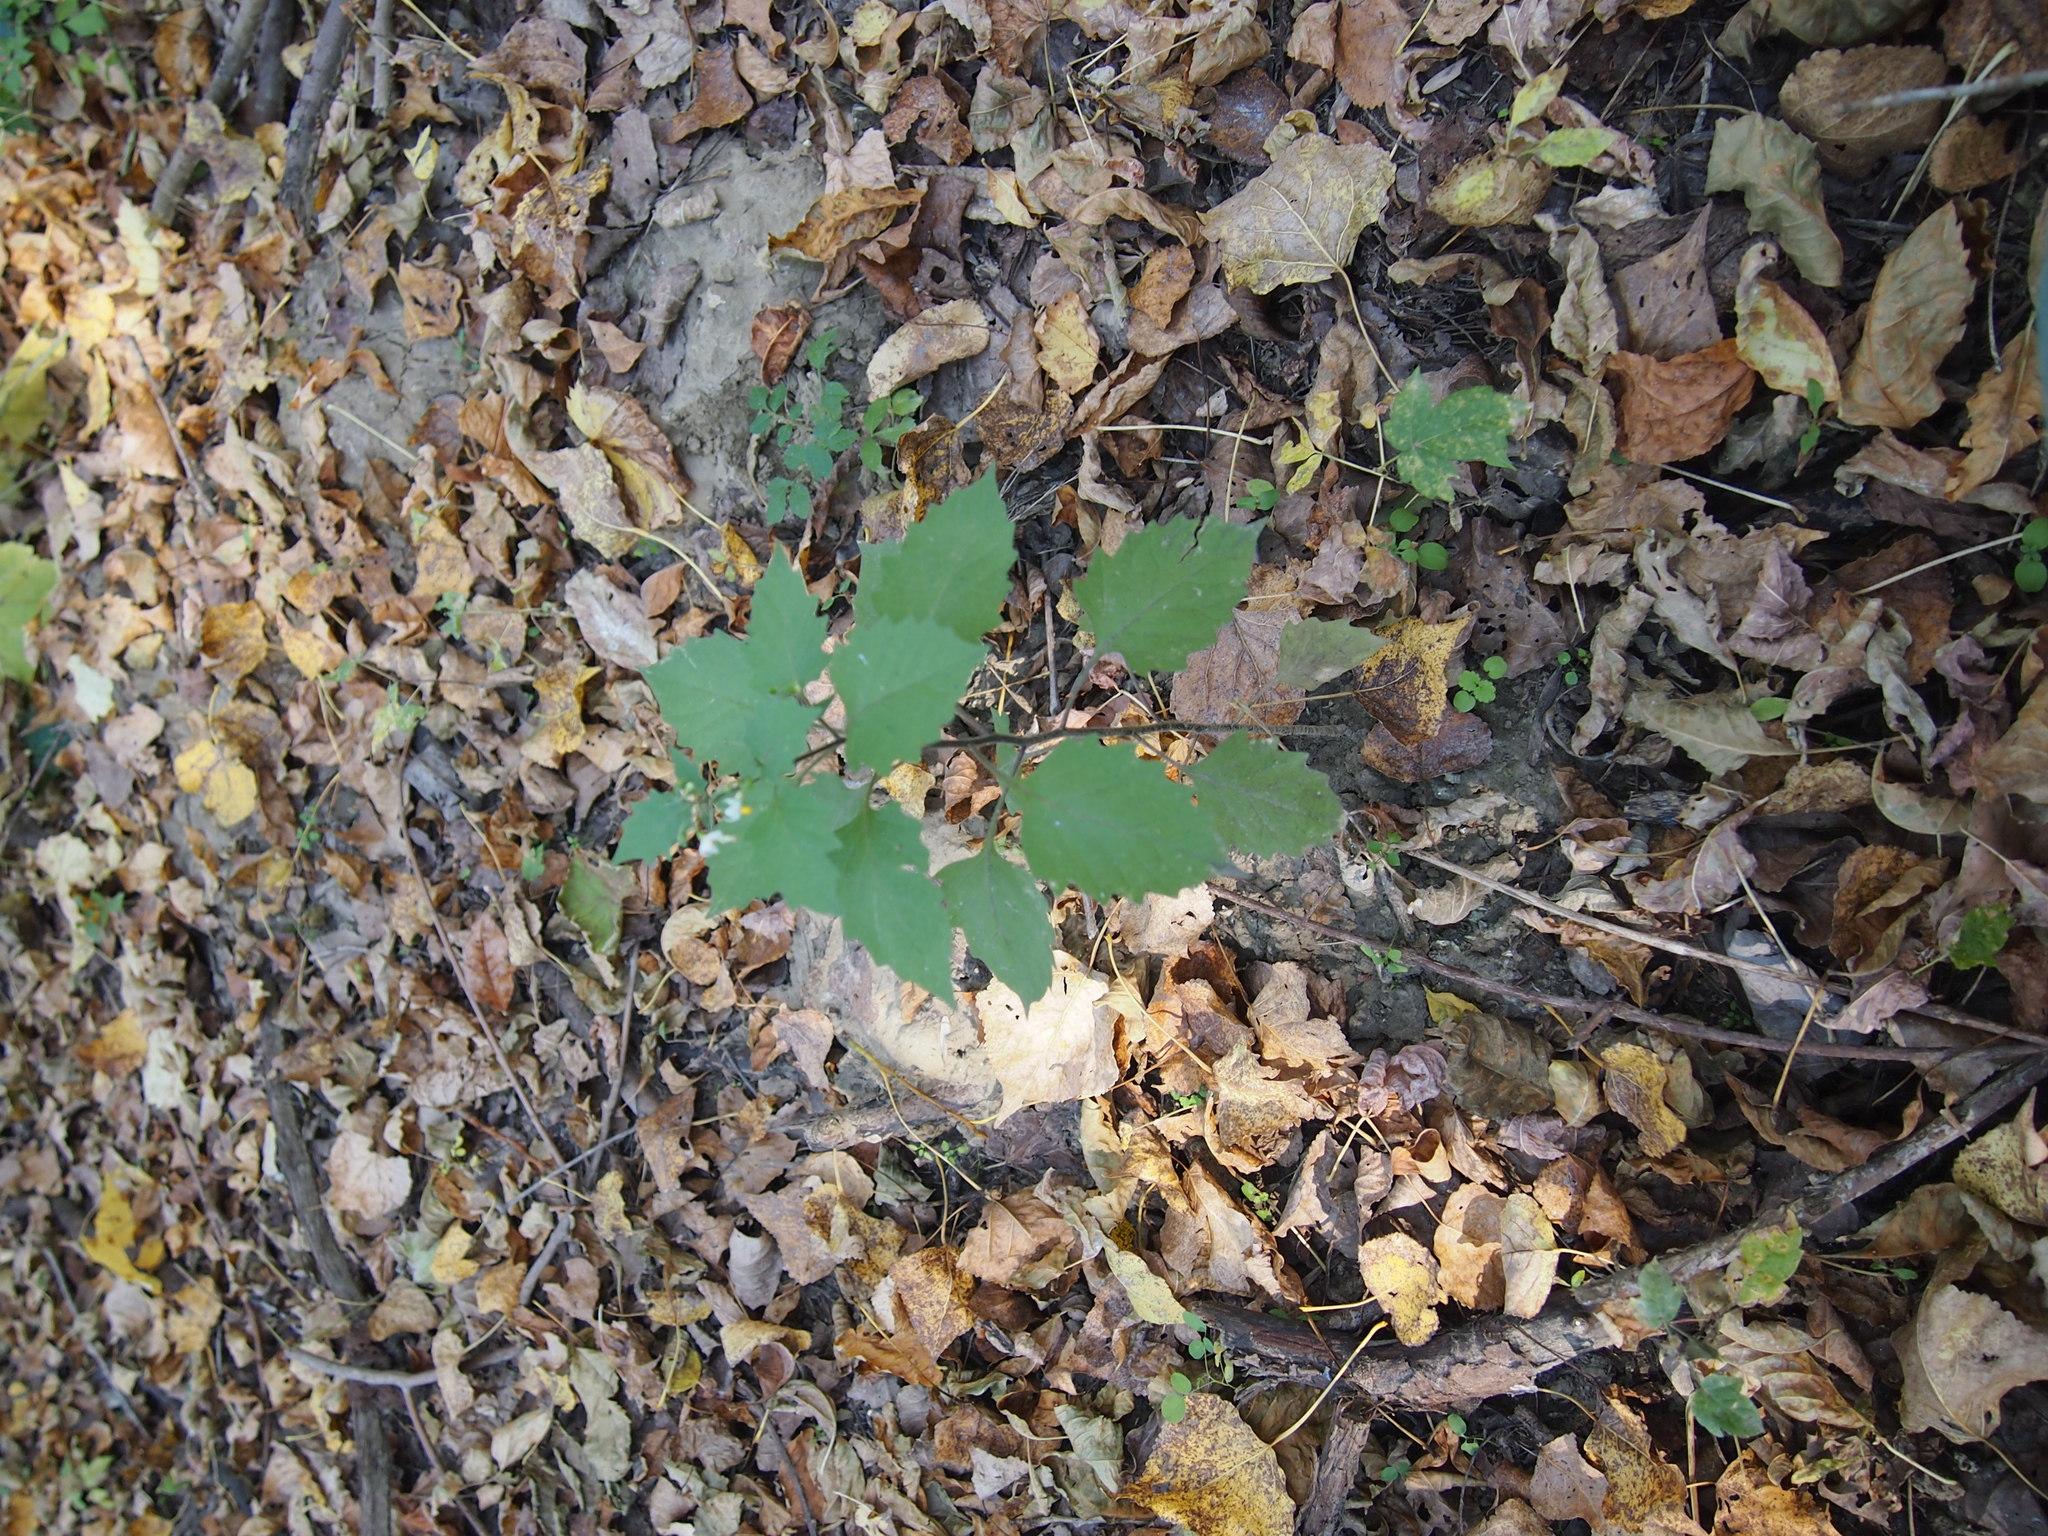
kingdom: Plantae
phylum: Tracheophyta
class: Magnoliopsida
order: Solanales
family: Solanaceae
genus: Solanum
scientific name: Solanum decipiens
